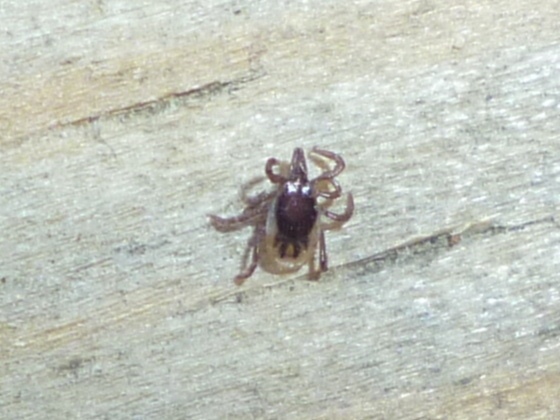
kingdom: Animalia
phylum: Arthropoda
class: Arachnida
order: Ixodida
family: Ixodidae
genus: Ixodes
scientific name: Ixodes scapularis
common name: Black legged tick
